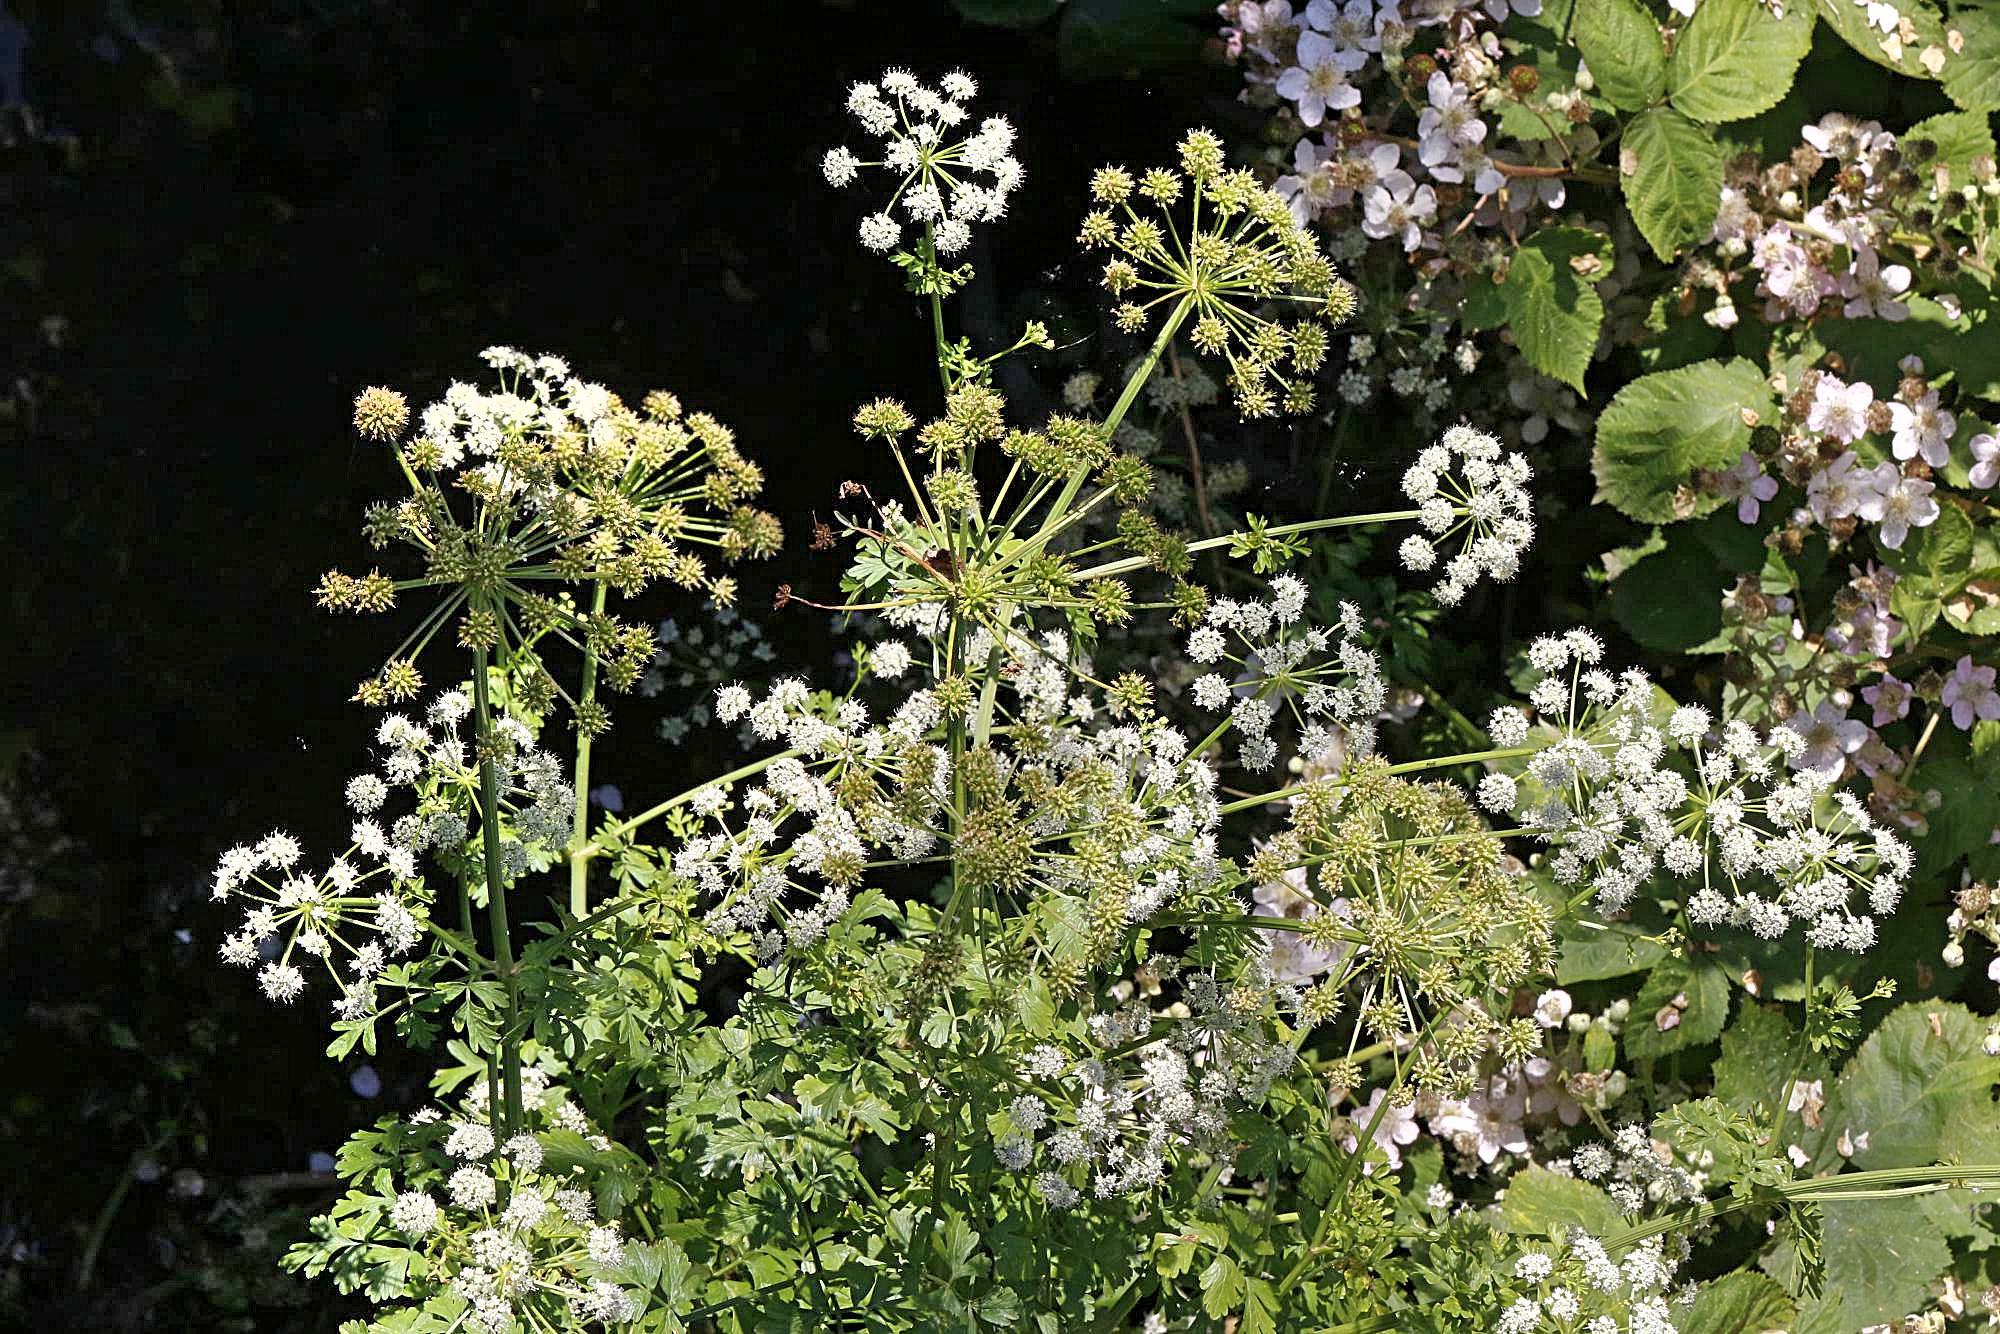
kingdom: Plantae
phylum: Tracheophyta
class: Magnoliopsida
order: Apiales
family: Apiaceae
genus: Oenanthe
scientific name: Oenanthe crocata
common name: Hemlock water-dropwort
